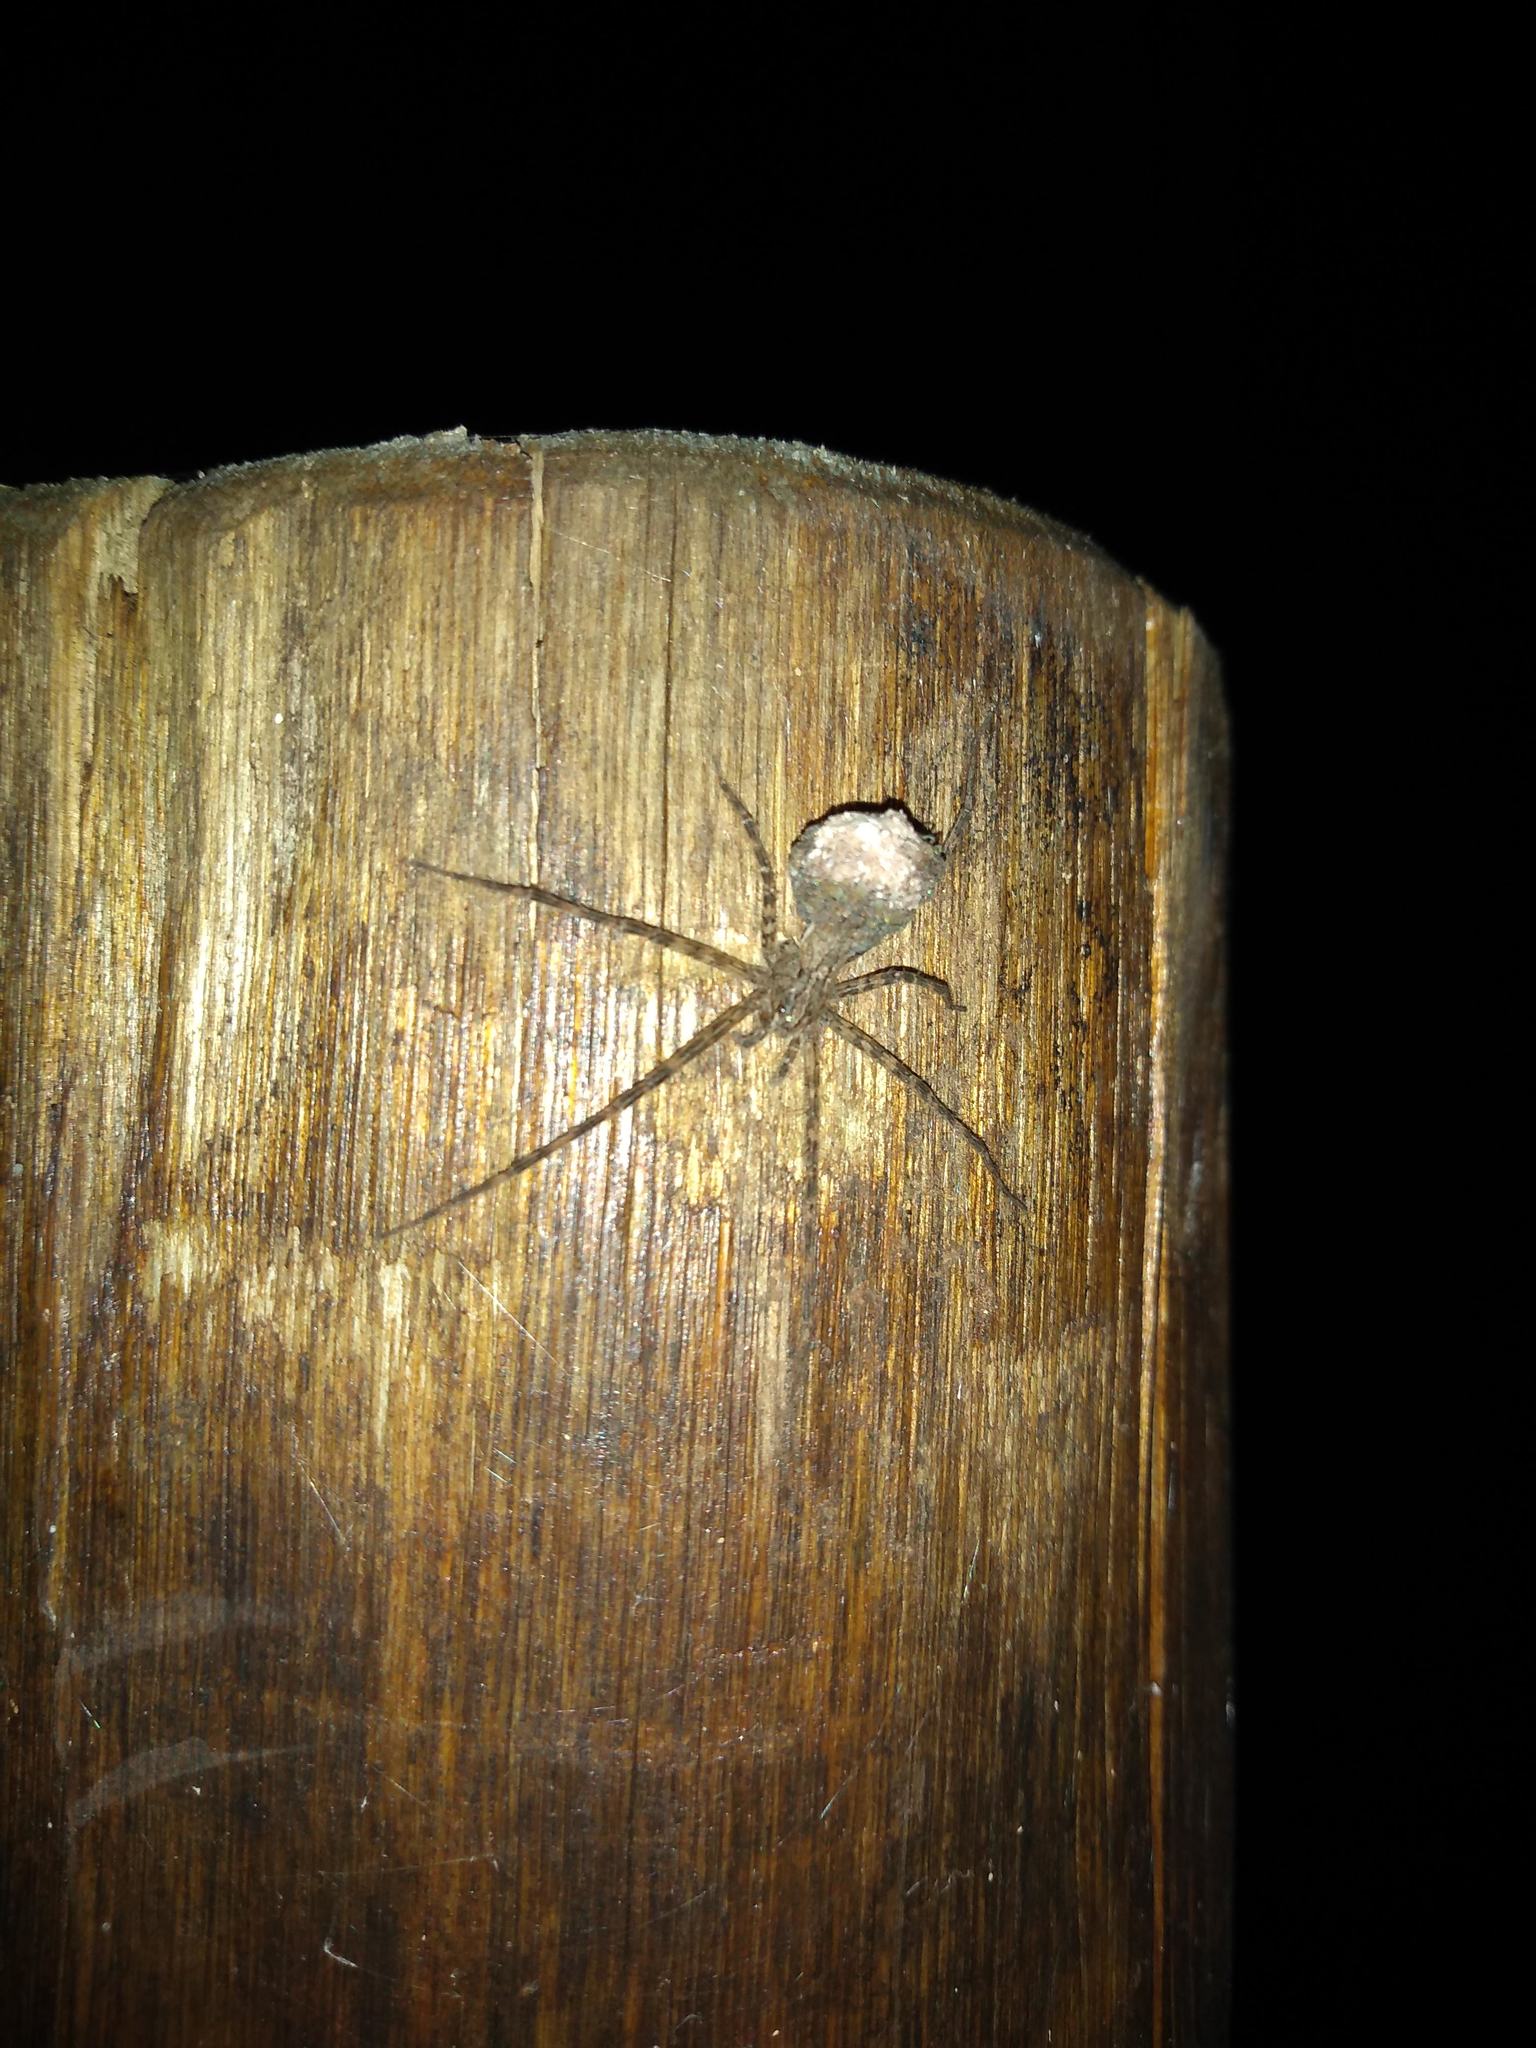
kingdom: Animalia
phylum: Arthropoda
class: Arachnida
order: Araneae
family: Trechaleidae
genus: Paradossenus
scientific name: Paradossenus longipes
